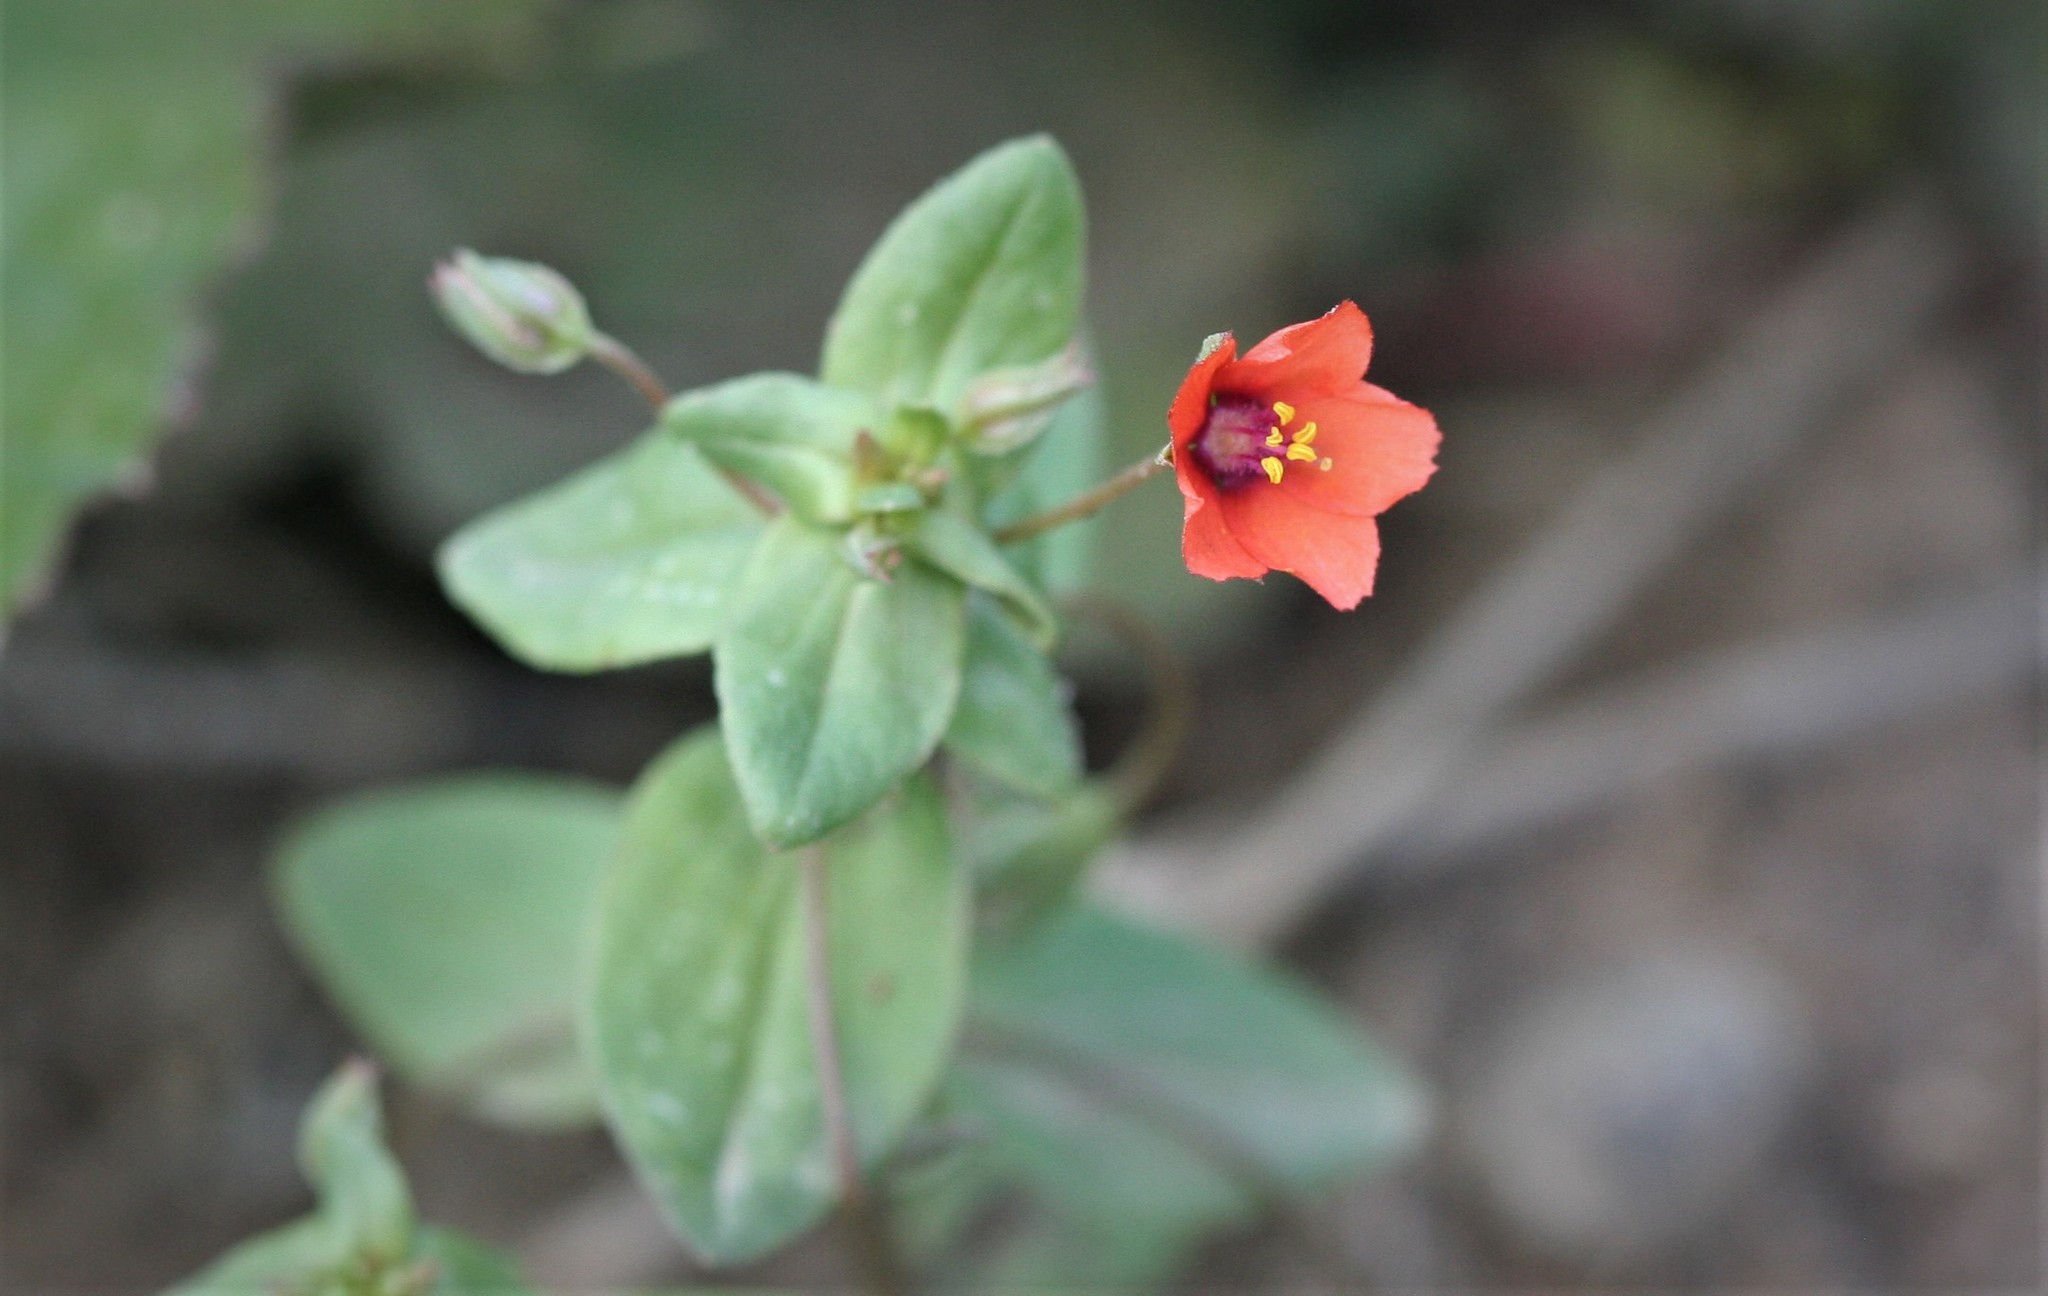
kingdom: Plantae
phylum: Tracheophyta
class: Magnoliopsida
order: Ericales
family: Primulaceae
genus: Lysimachia
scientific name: Lysimachia arvensis
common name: Scarlet pimpernel
